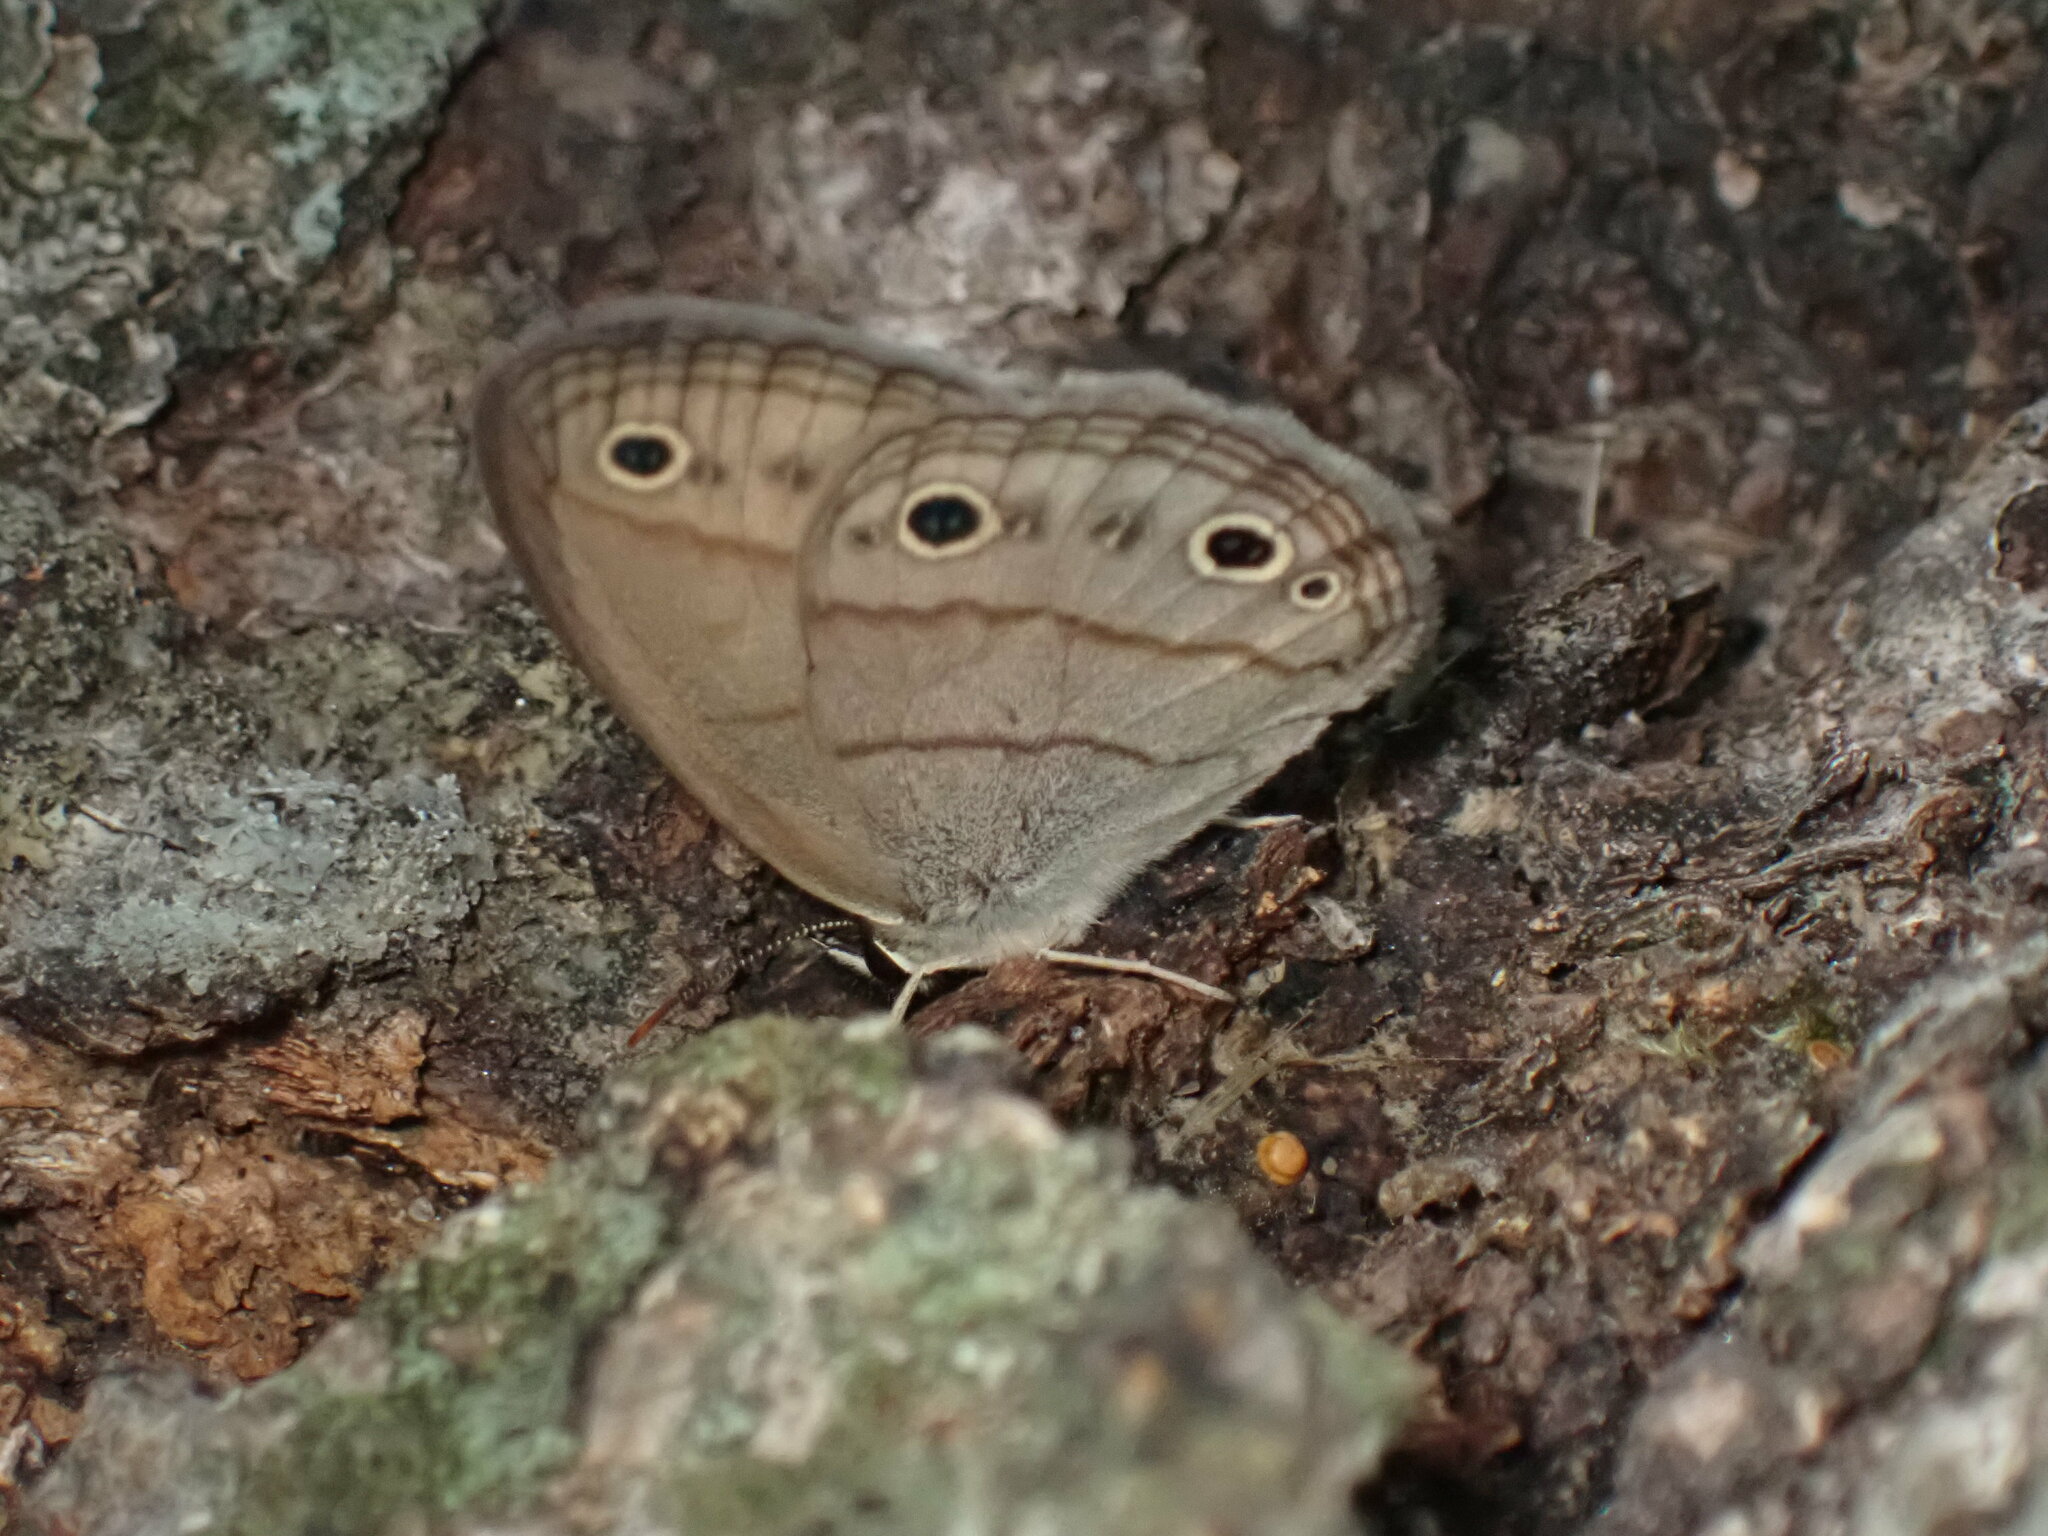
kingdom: Animalia
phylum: Arthropoda
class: Insecta
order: Lepidoptera
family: Nymphalidae
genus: Euptychia
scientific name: Euptychia cymela
